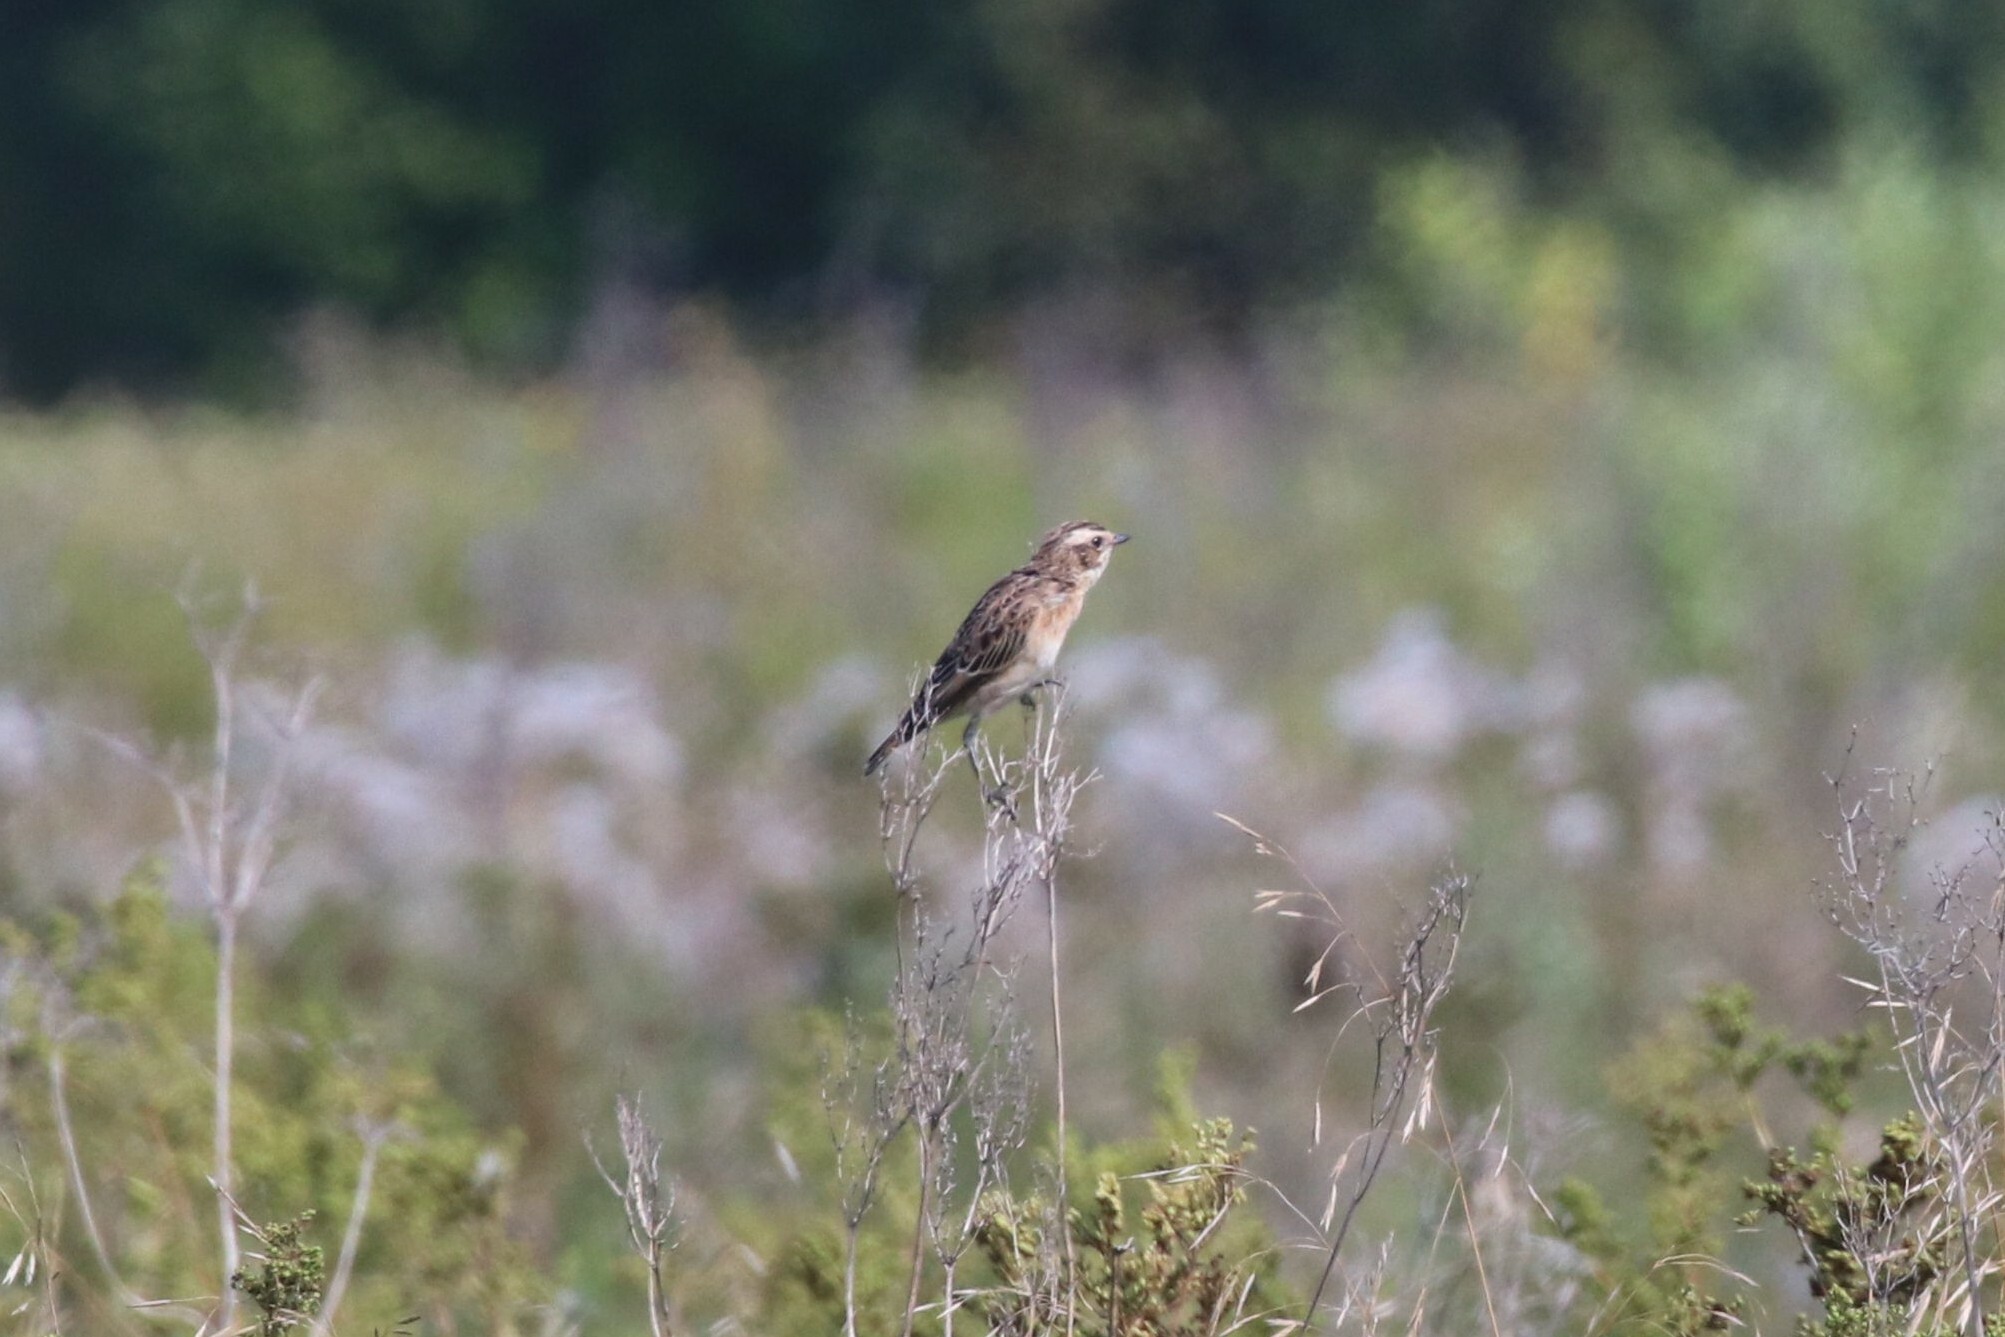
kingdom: Animalia
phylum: Chordata
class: Aves
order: Passeriformes
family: Muscicapidae
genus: Saxicola
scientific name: Saxicola rubetra
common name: Whinchat
